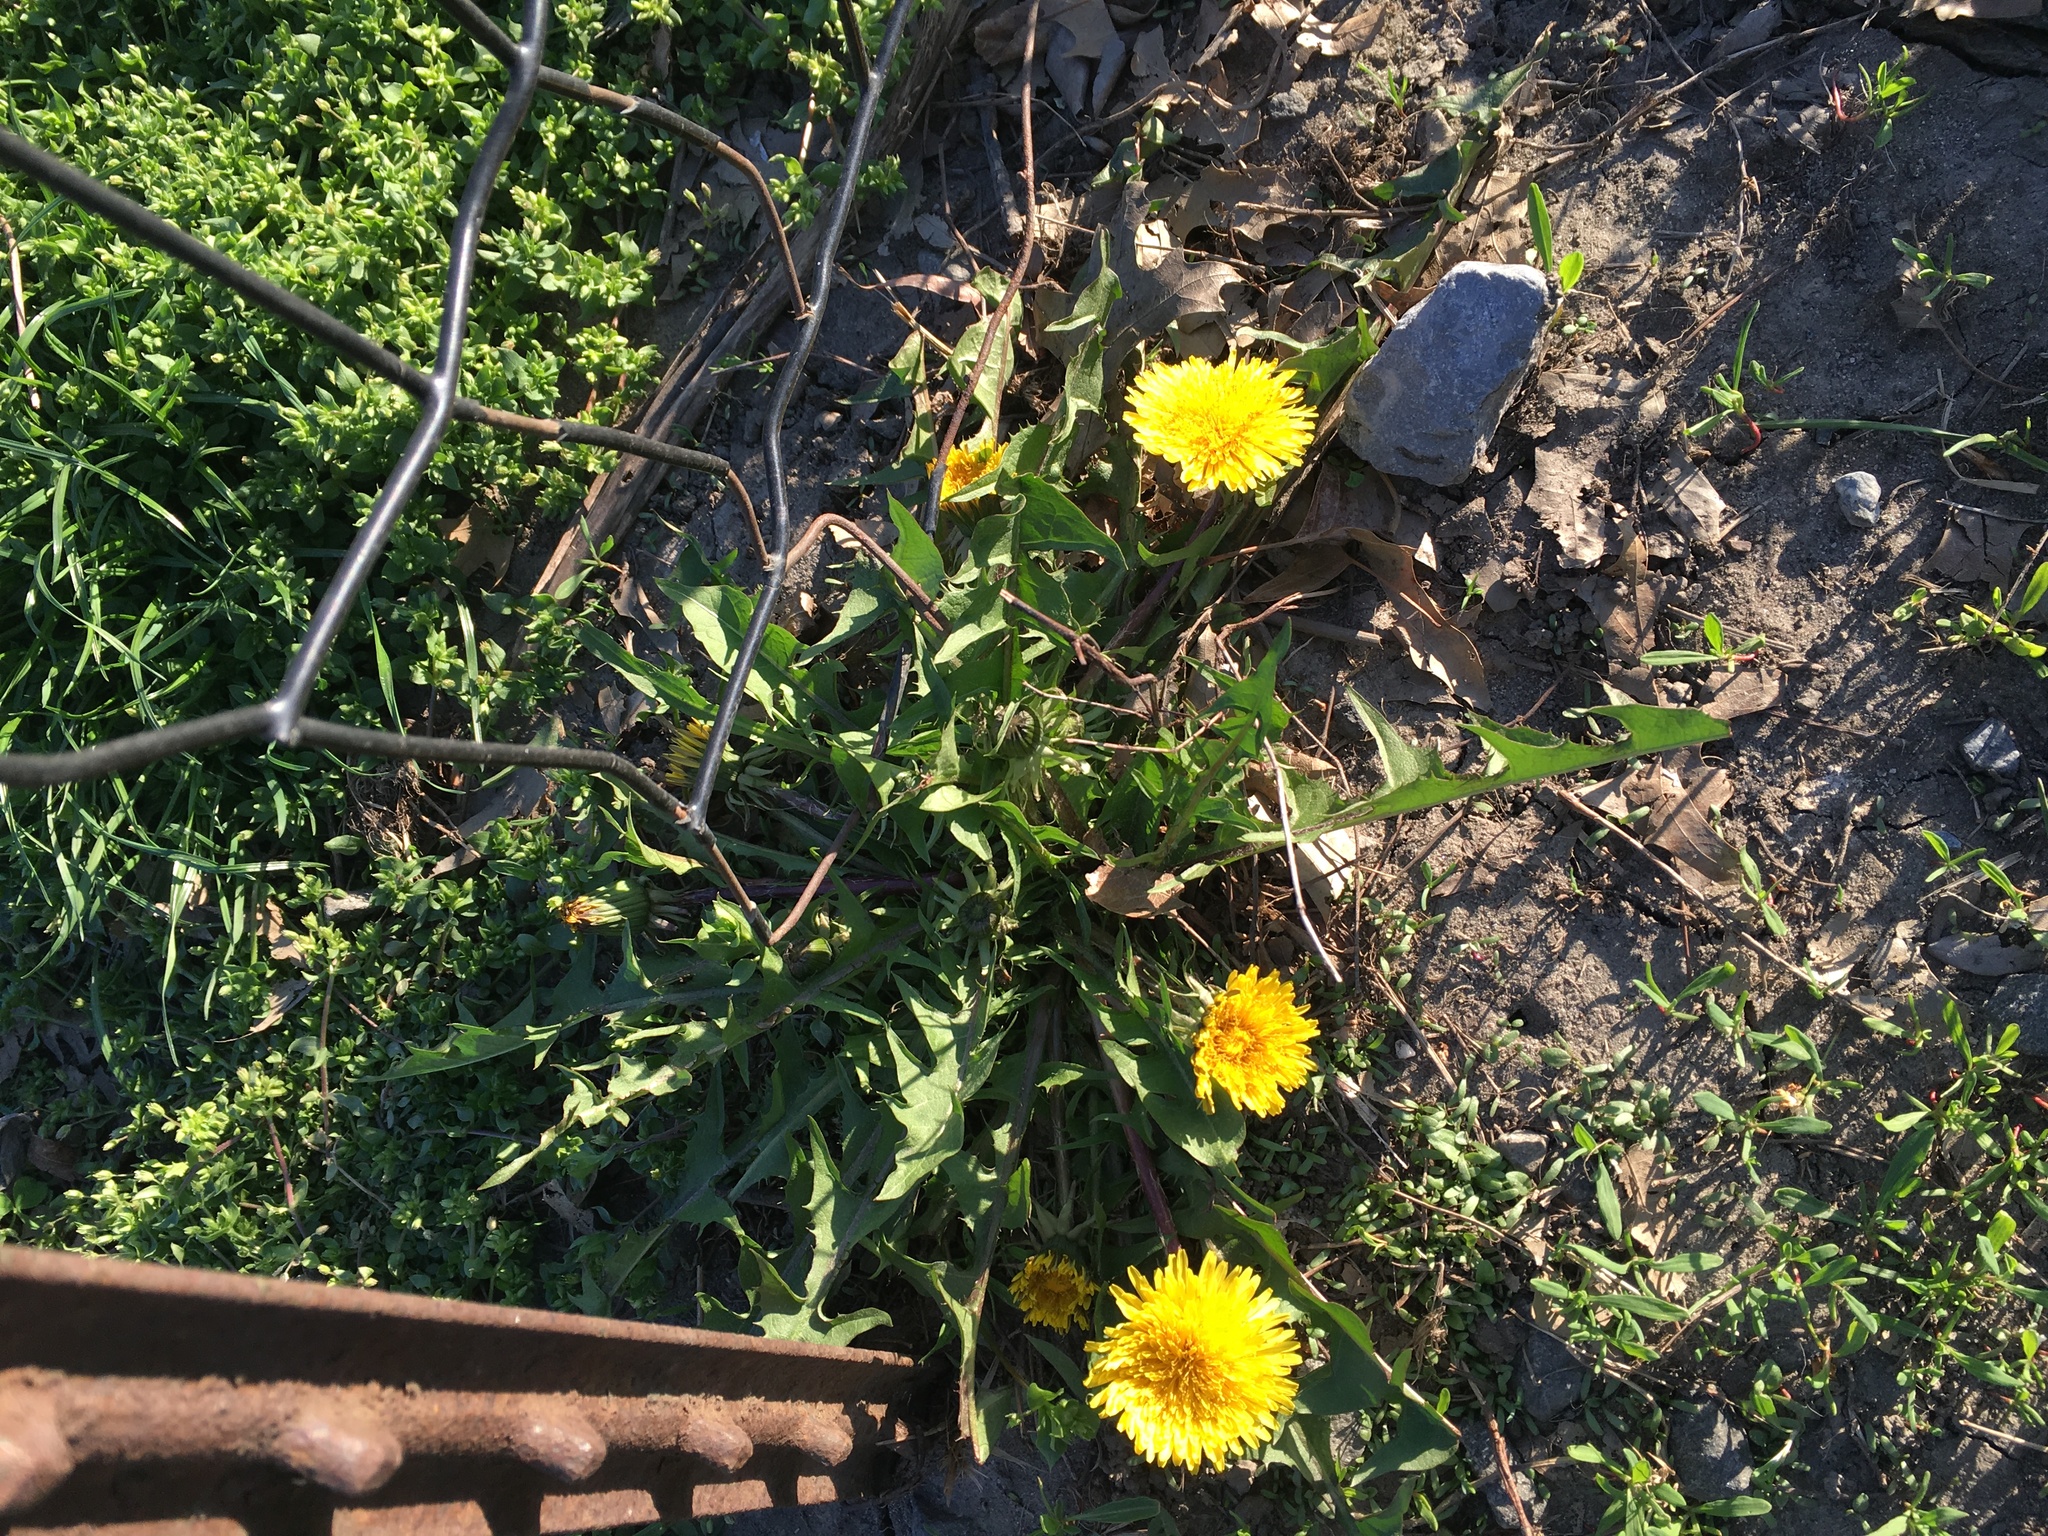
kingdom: Plantae
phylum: Tracheophyta
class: Magnoliopsida
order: Asterales
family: Asteraceae
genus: Taraxacum
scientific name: Taraxacum officinale
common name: Common dandelion
